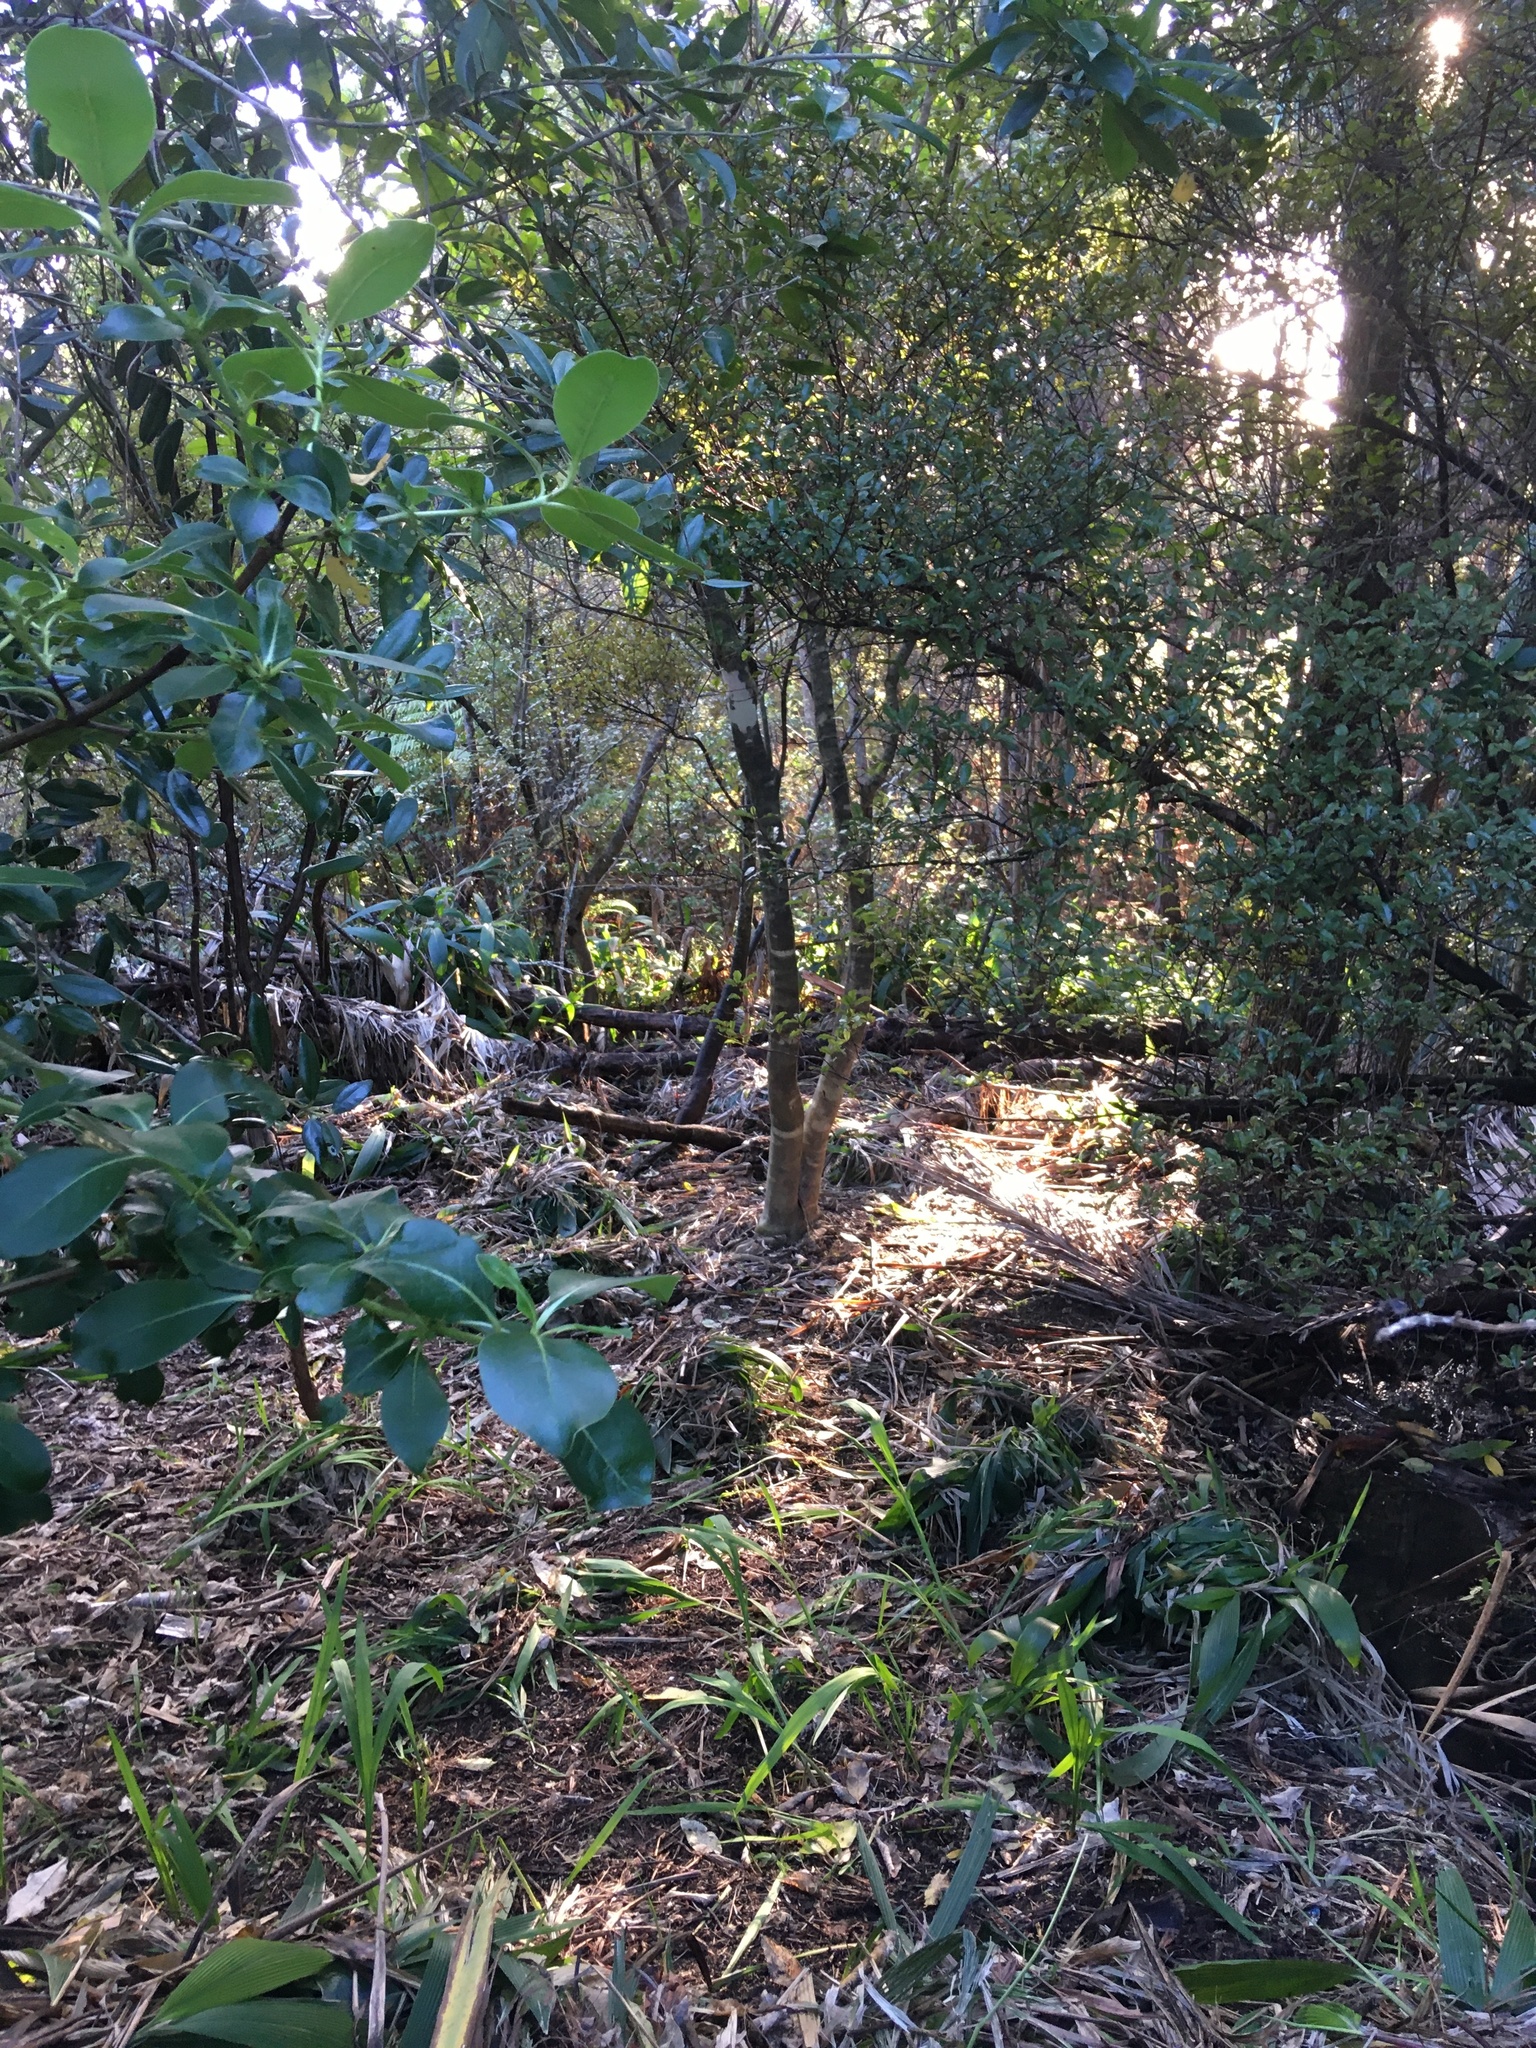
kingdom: Plantae
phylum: Tracheophyta
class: Magnoliopsida
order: Gentianales
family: Rubiaceae
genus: Coprosma
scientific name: Coprosma robusta
